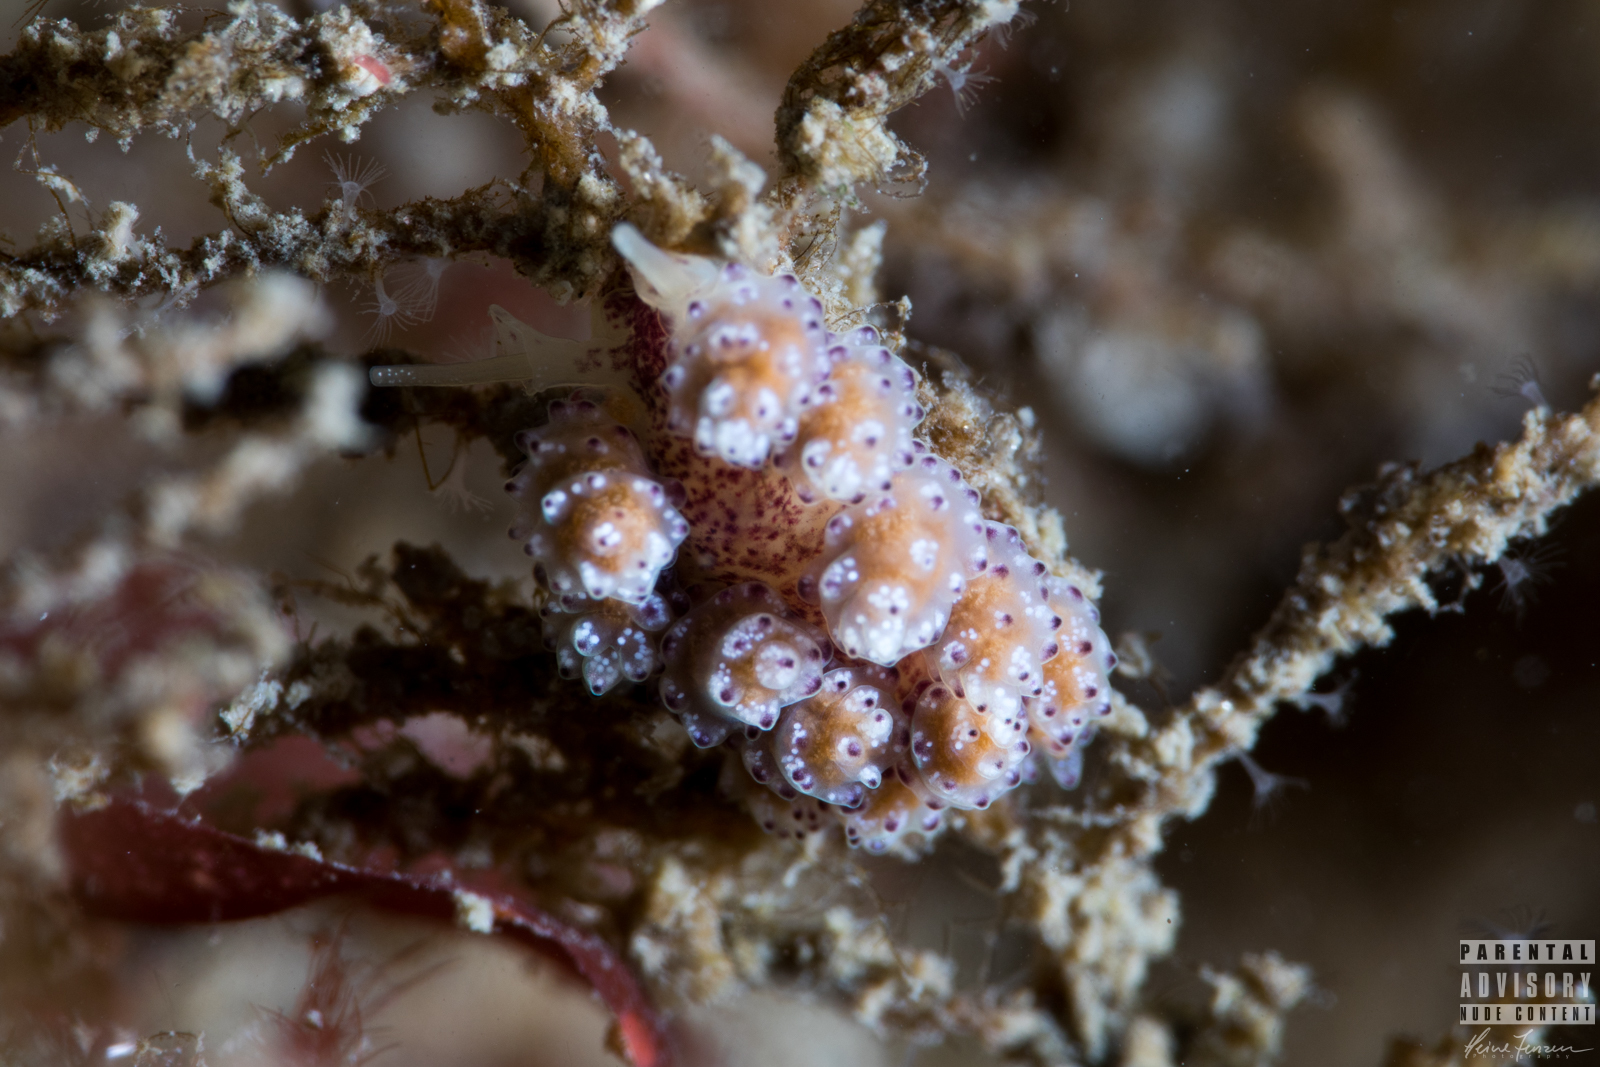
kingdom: Animalia
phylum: Mollusca
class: Gastropoda
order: Nudibranchia
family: Dotidae
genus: Doto
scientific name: Doto coronata
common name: Coronate doto
